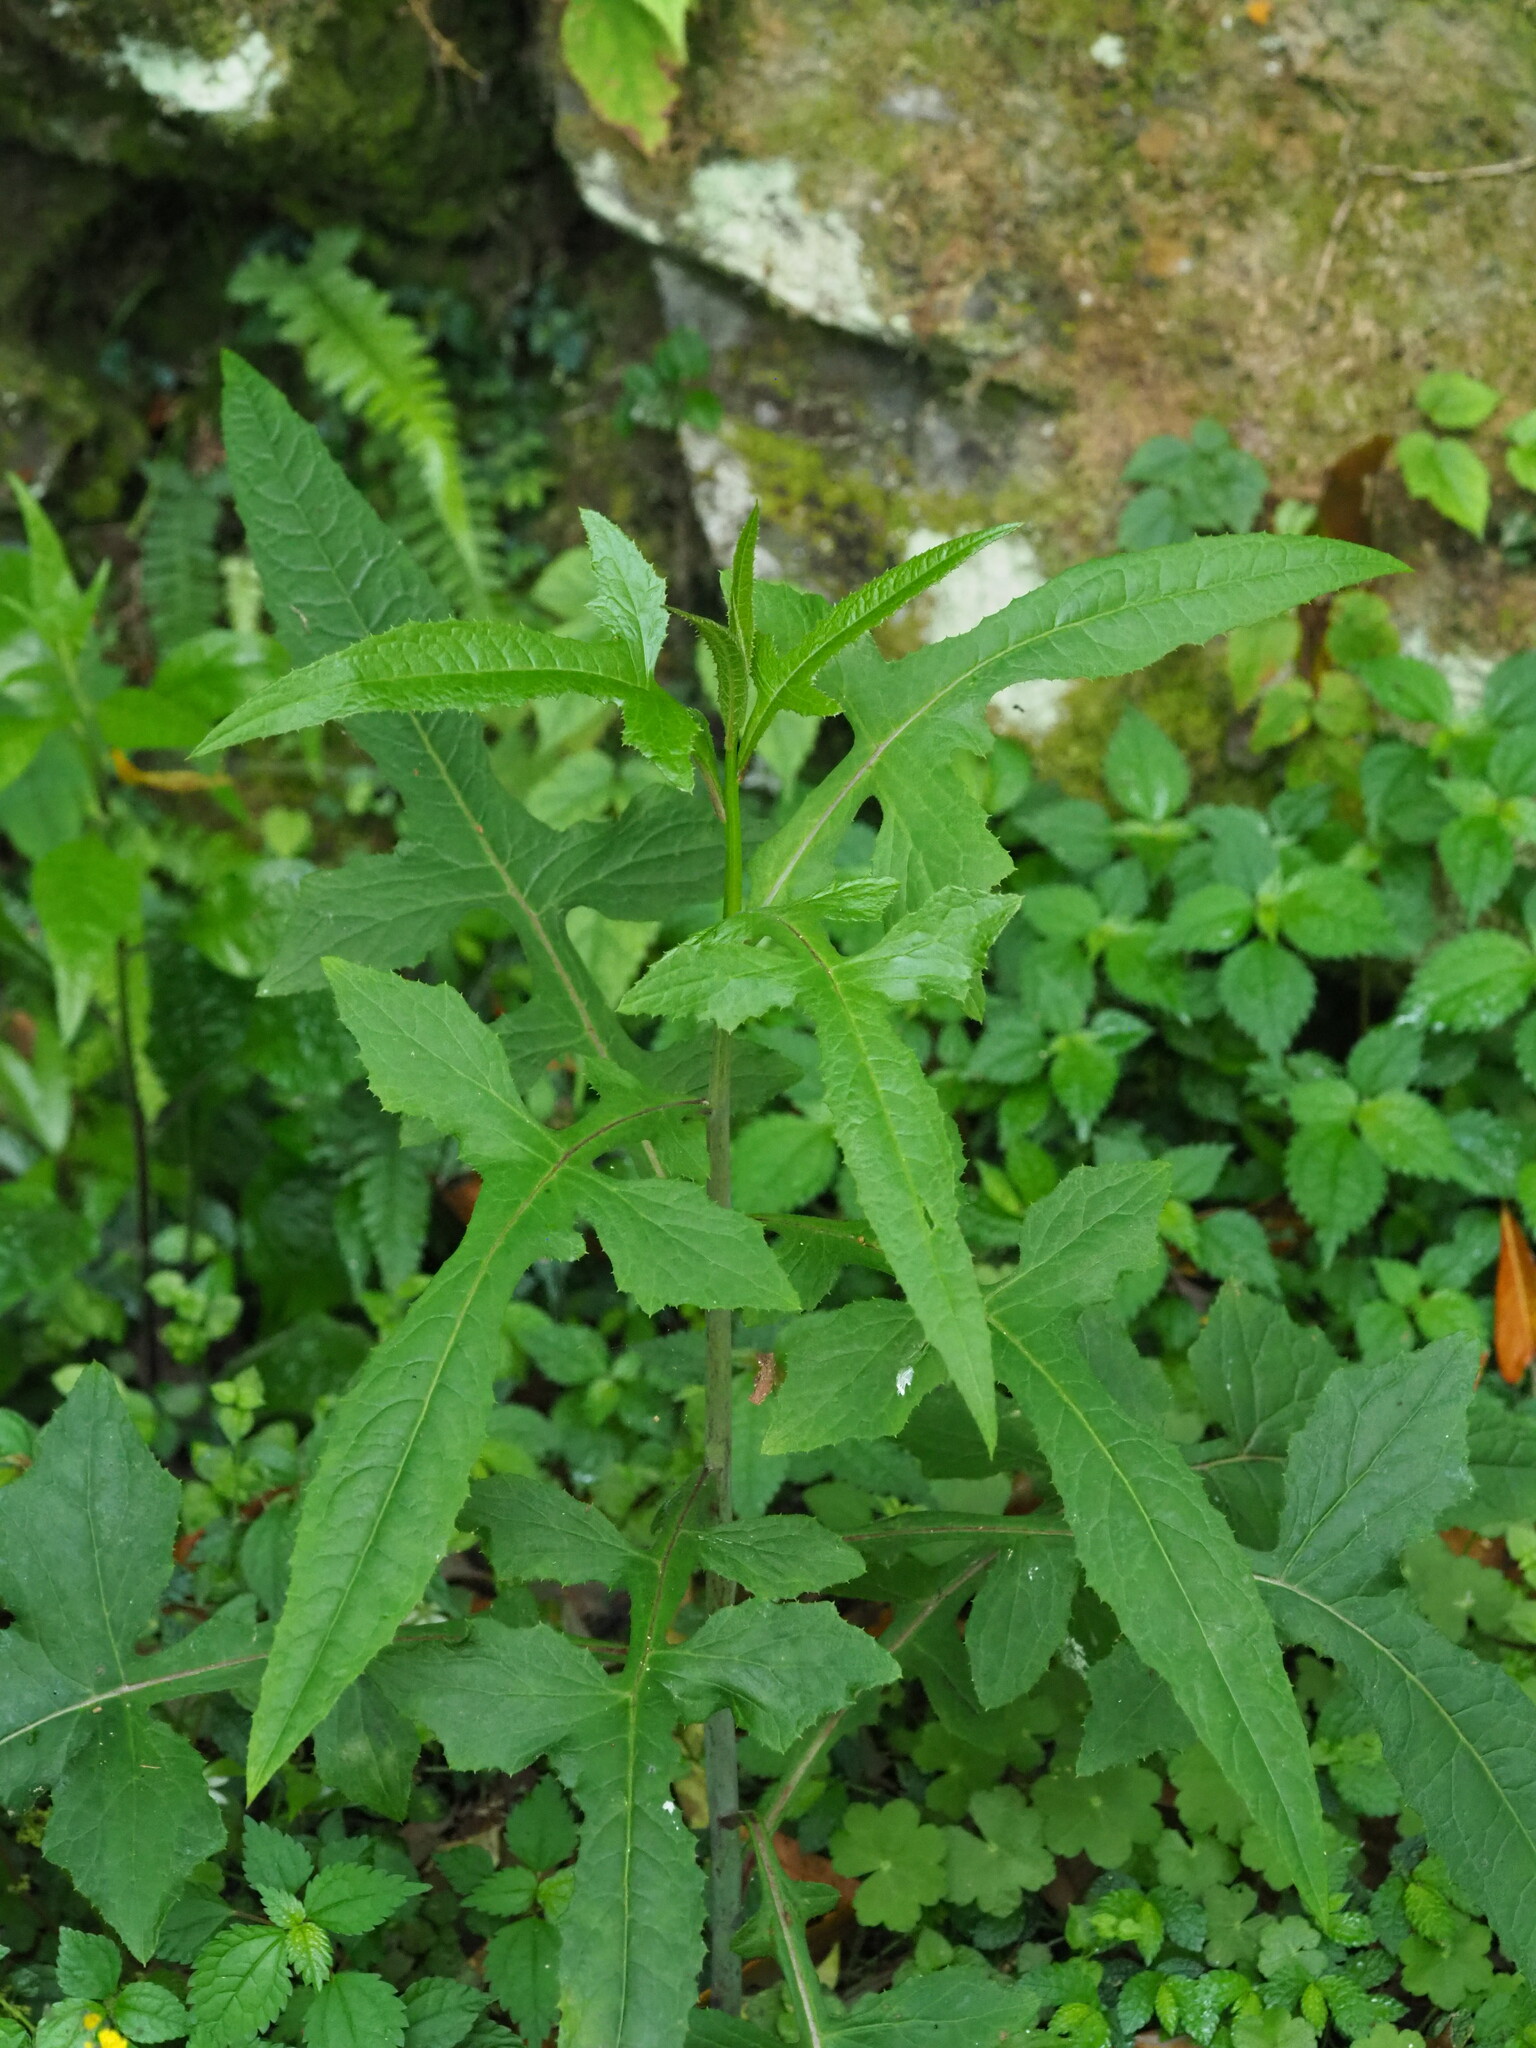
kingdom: Plantae
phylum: Tracheophyta
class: Magnoliopsida
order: Asterales
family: Asteraceae
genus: Paraprenanthes
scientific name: Paraprenanthes sororia
